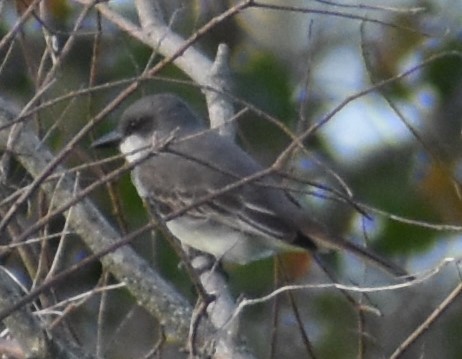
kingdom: Animalia
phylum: Chordata
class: Aves
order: Passeriformes
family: Tyrannidae
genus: Tyrannus
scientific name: Tyrannus dominicensis
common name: Gray kingbird
